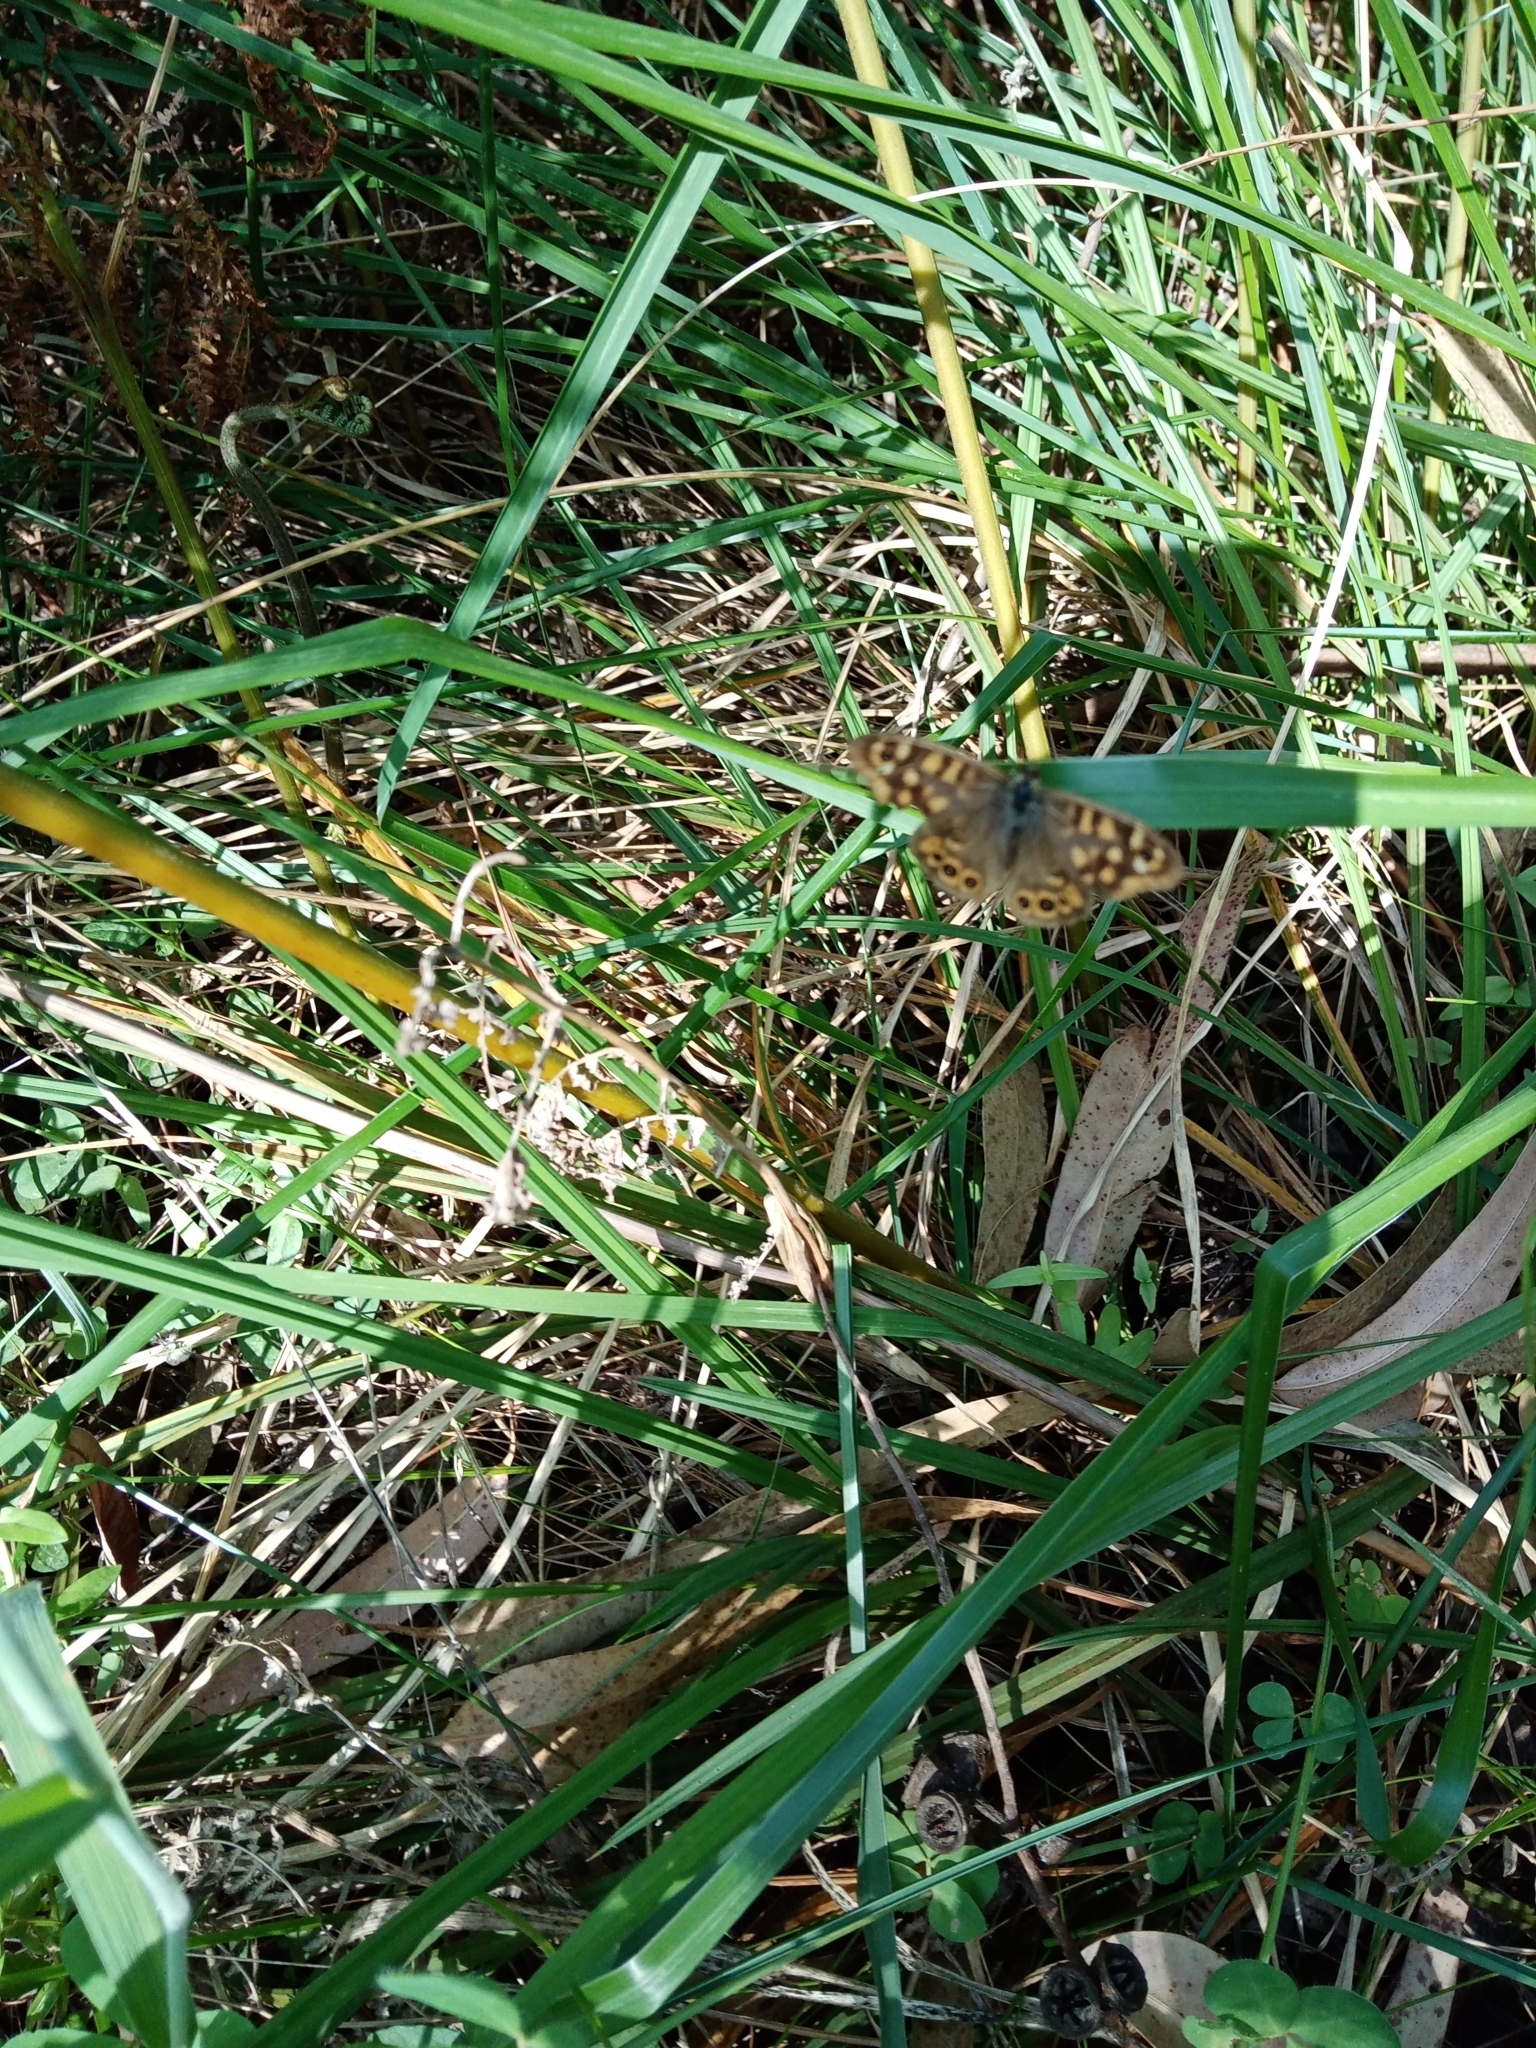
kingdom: Animalia
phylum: Arthropoda
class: Insecta
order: Lepidoptera
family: Nymphalidae
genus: Pararge
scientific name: Pararge aegeria
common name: Speckled wood
